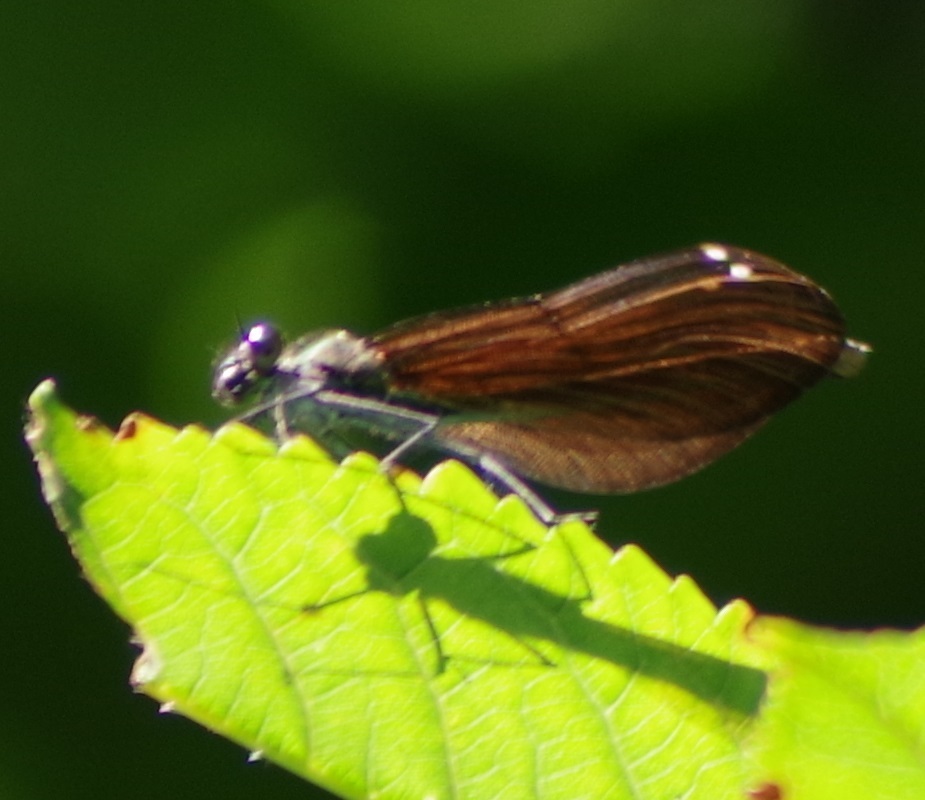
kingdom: Animalia
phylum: Arthropoda
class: Insecta
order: Odonata
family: Calopterygidae
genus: Calopteryx
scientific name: Calopteryx virgo
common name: Beautiful demoiselle
